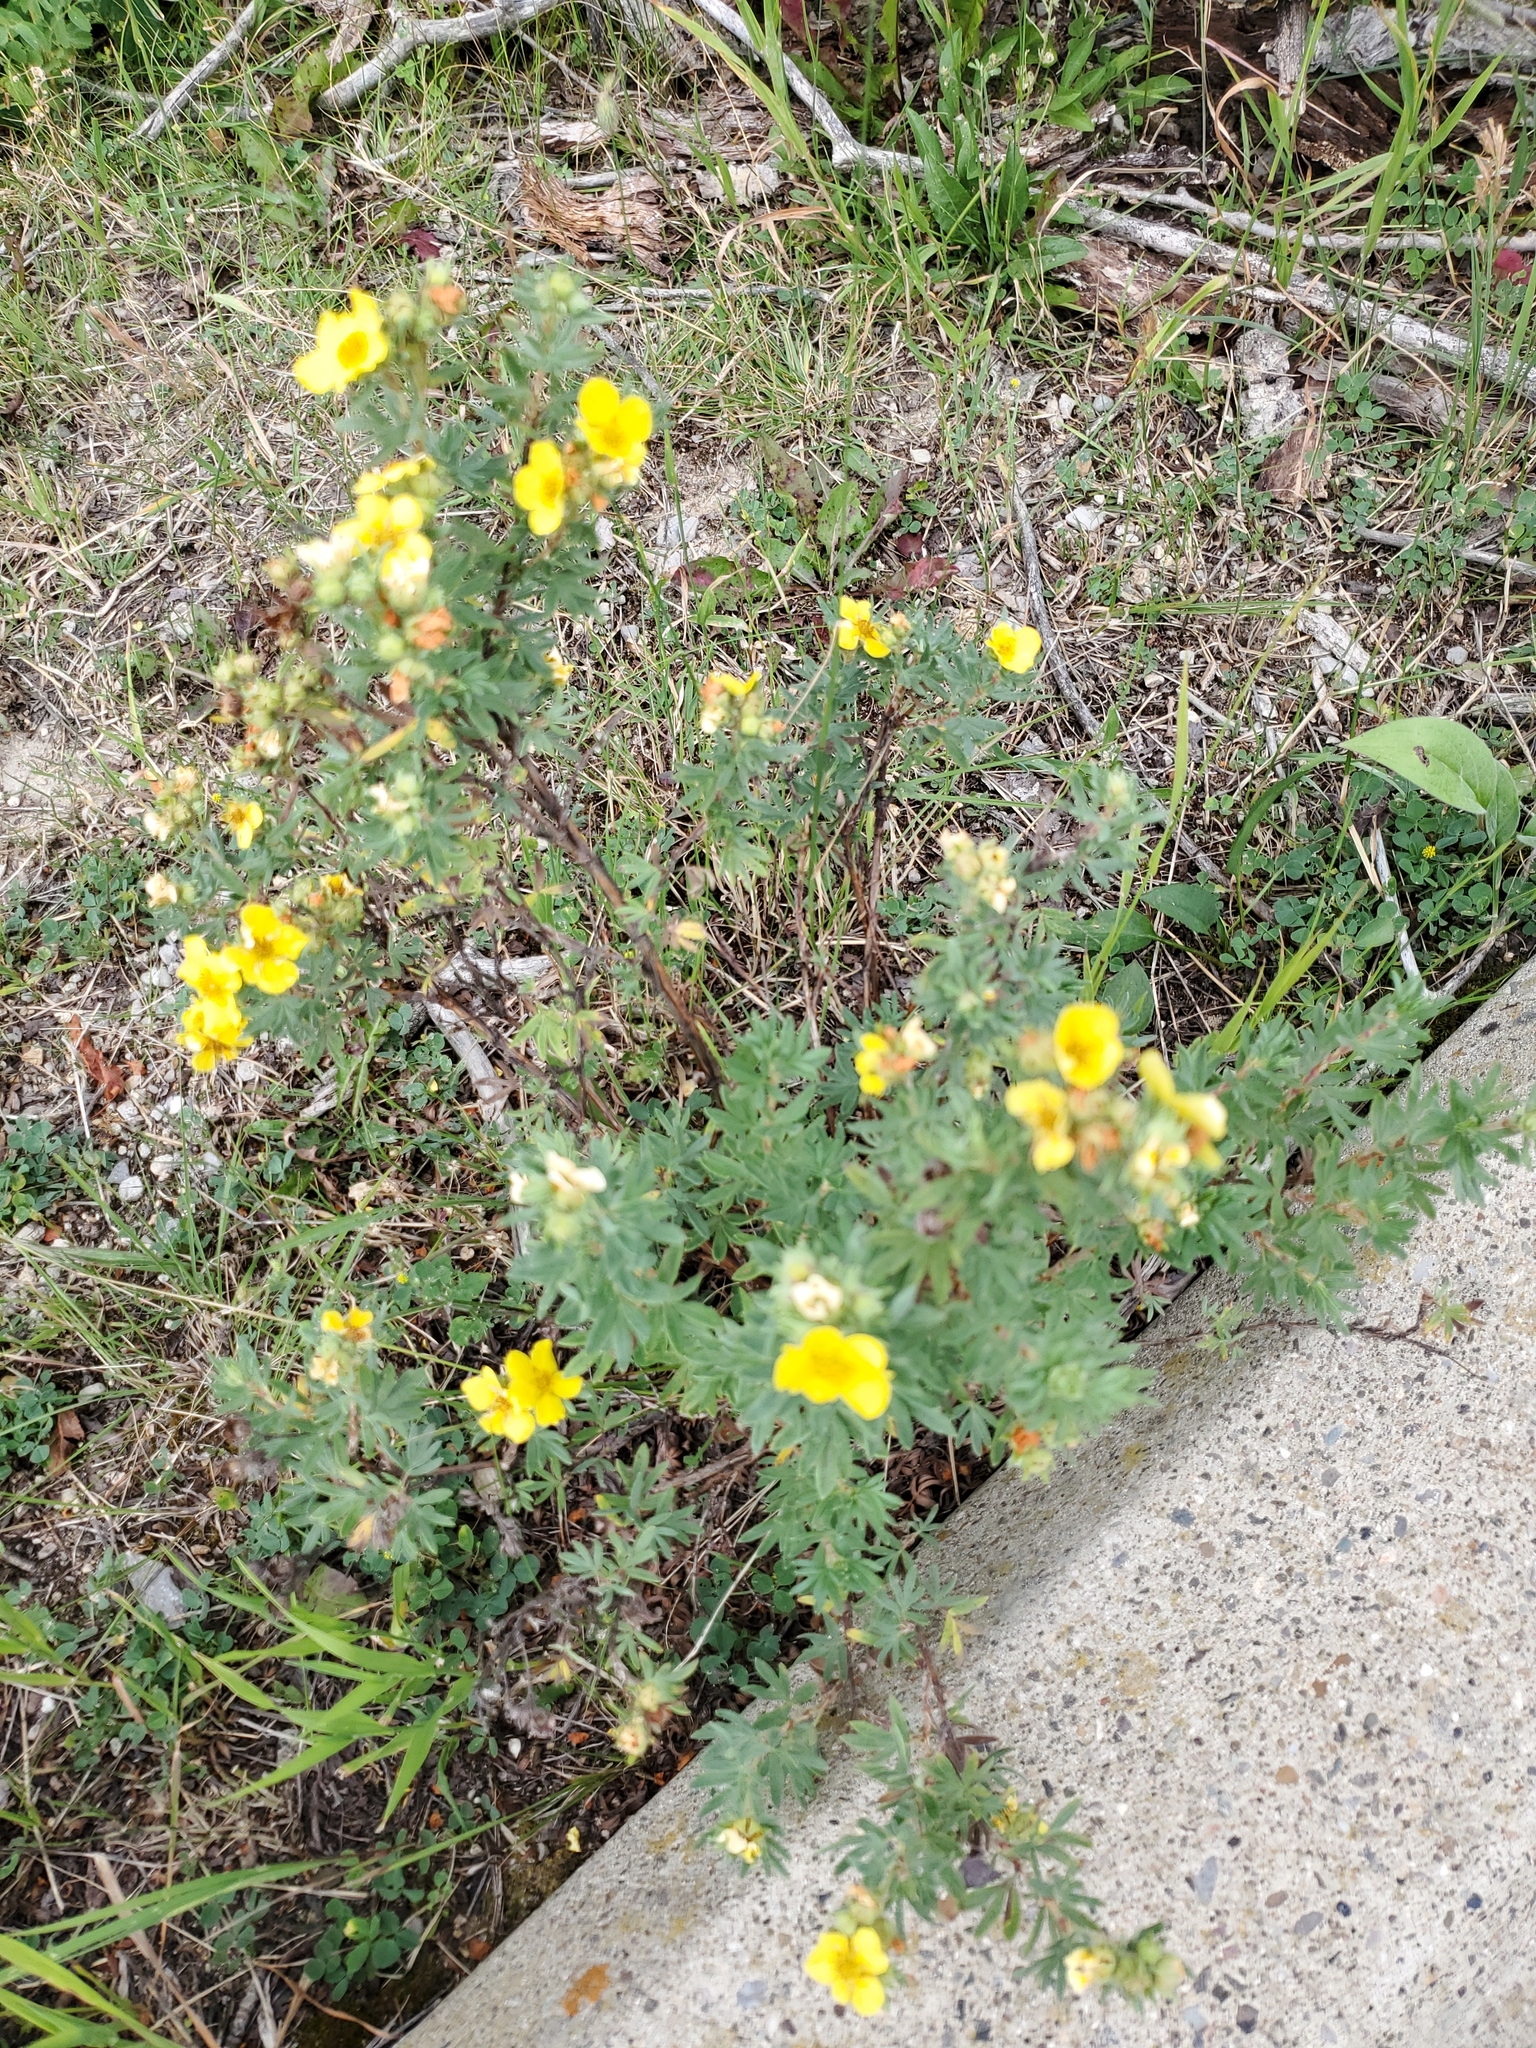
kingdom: Plantae
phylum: Tracheophyta
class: Magnoliopsida
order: Rosales
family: Rosaceae
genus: Dasiphora
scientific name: Dasiphora fruticosa
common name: Shrubby cinquefoil
